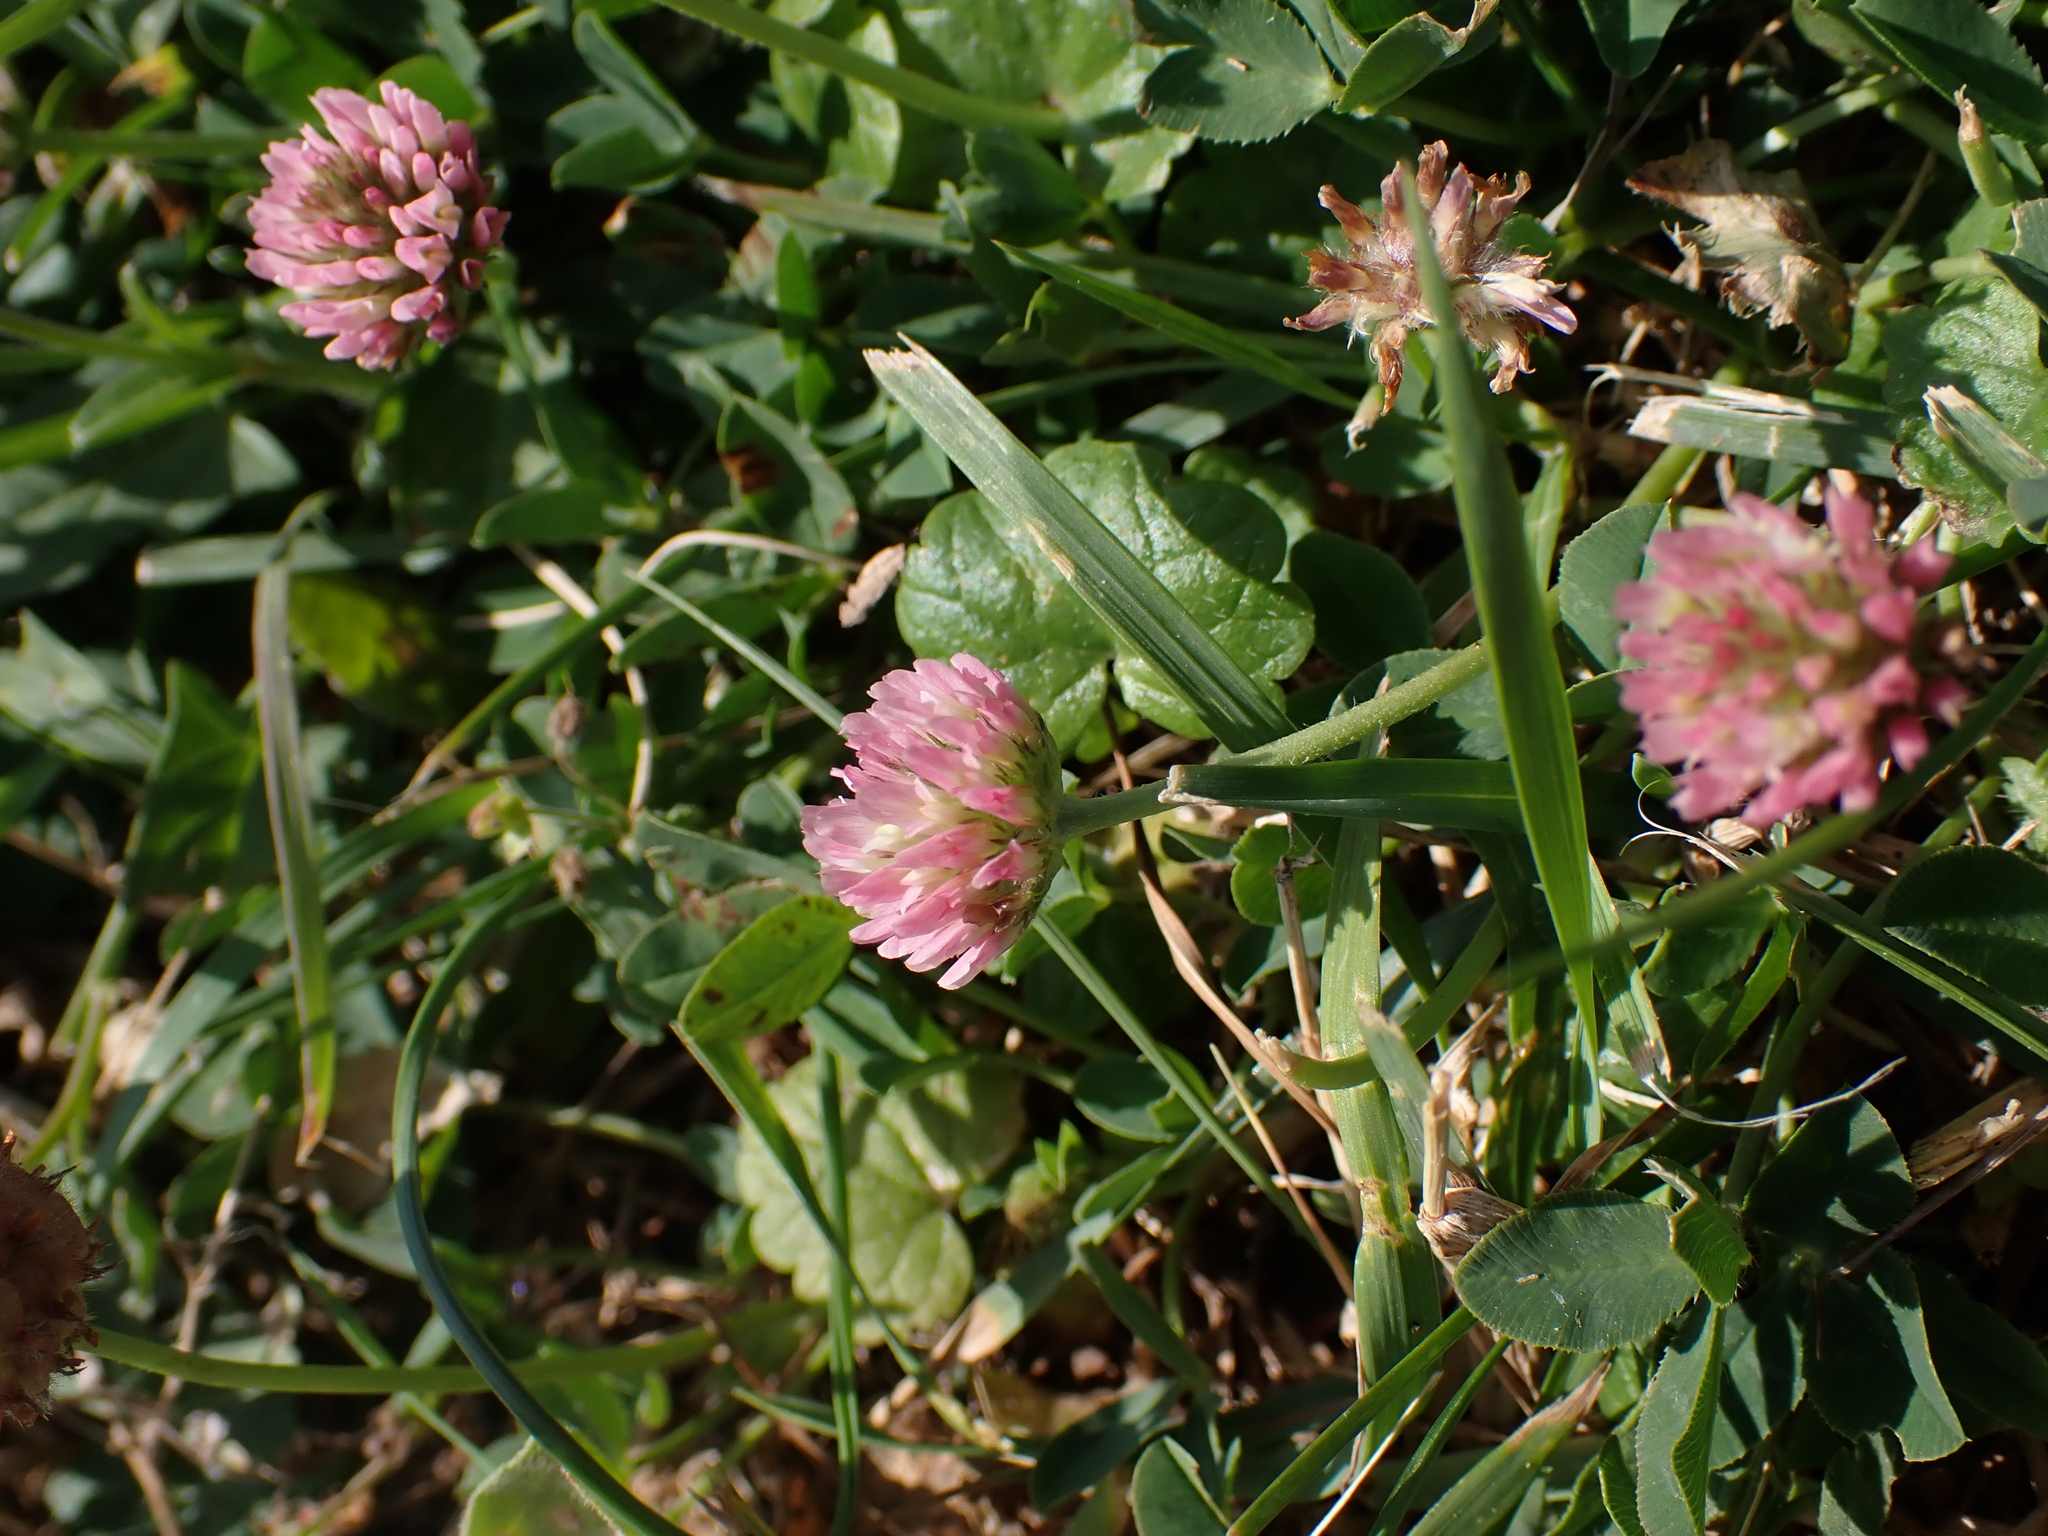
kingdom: Plantae
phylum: Tracheophyta
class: Magnoliopsida
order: Fabales
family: Fabaceae
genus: Trifolium
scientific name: Trifolium fragiferum
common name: Strawberry clover
